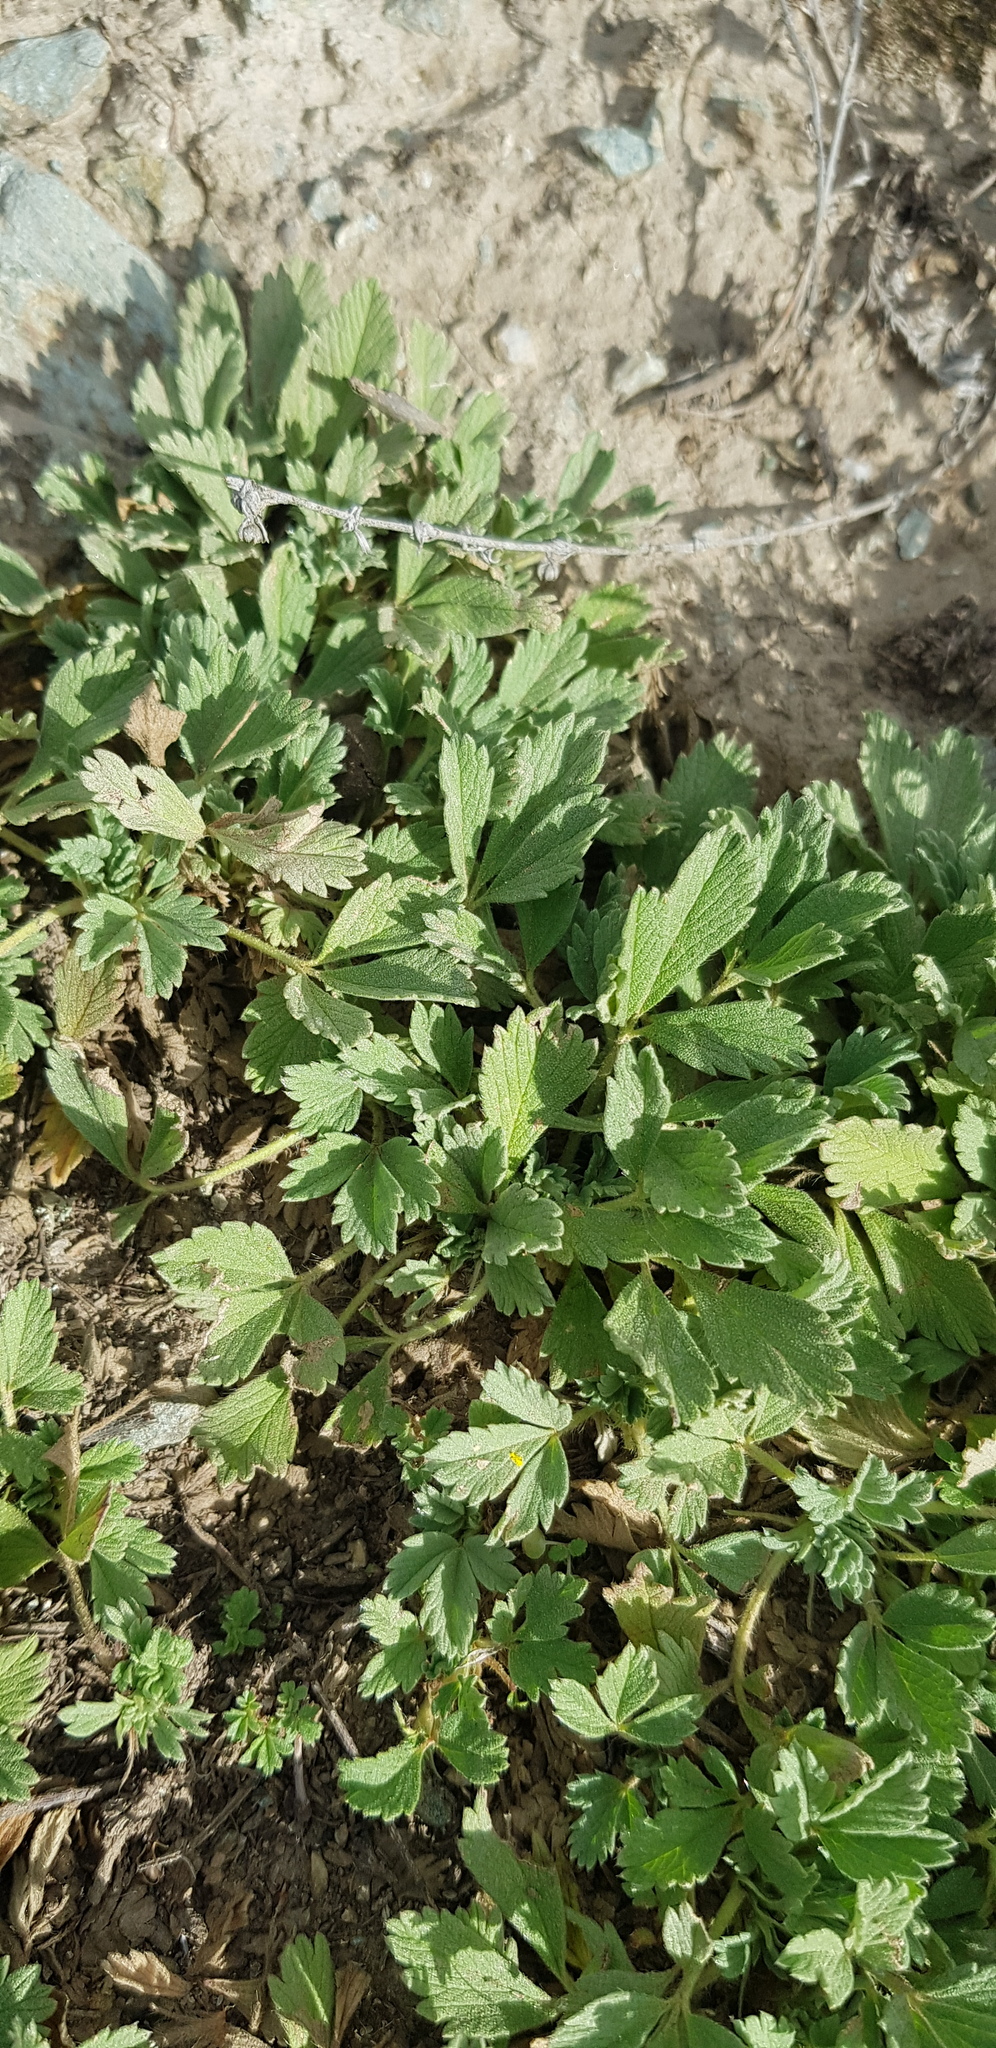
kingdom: Plantae
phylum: Tracheophyta
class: Magnoliopsida
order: Rosales
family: Rosaceae
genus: Potentilla
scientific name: Potentilla acaulis
